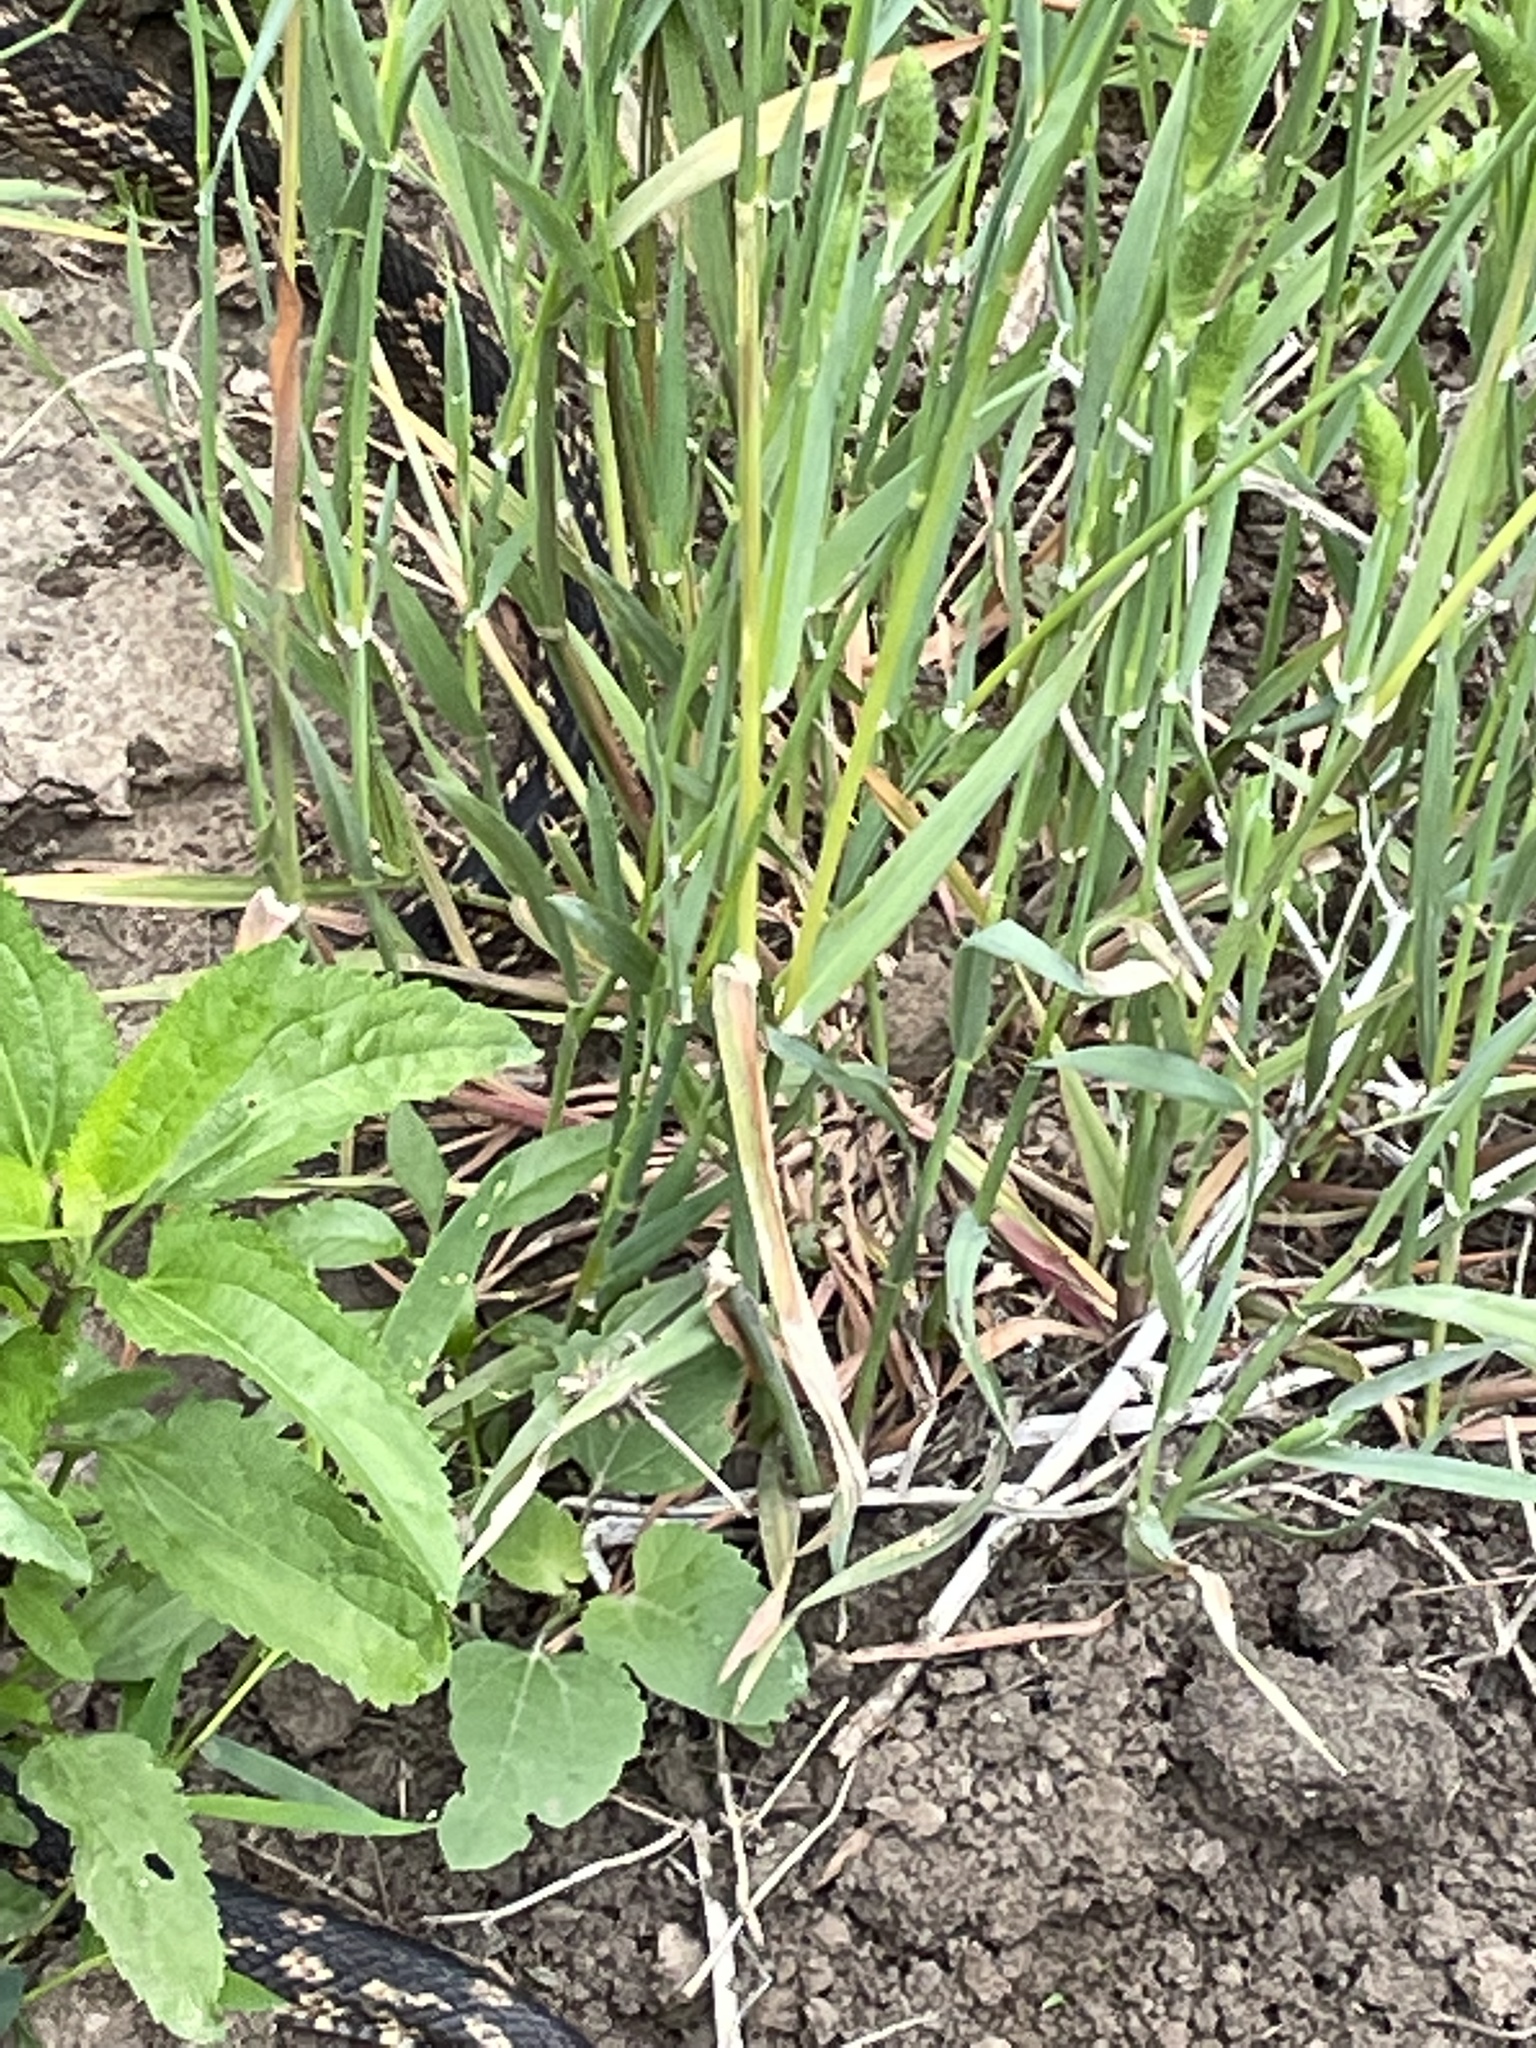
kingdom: Animalia
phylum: Chordata
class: Squamata
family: Colubridae
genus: Pantherophis
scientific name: Pantherophis obsoletus
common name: Black rat snake
